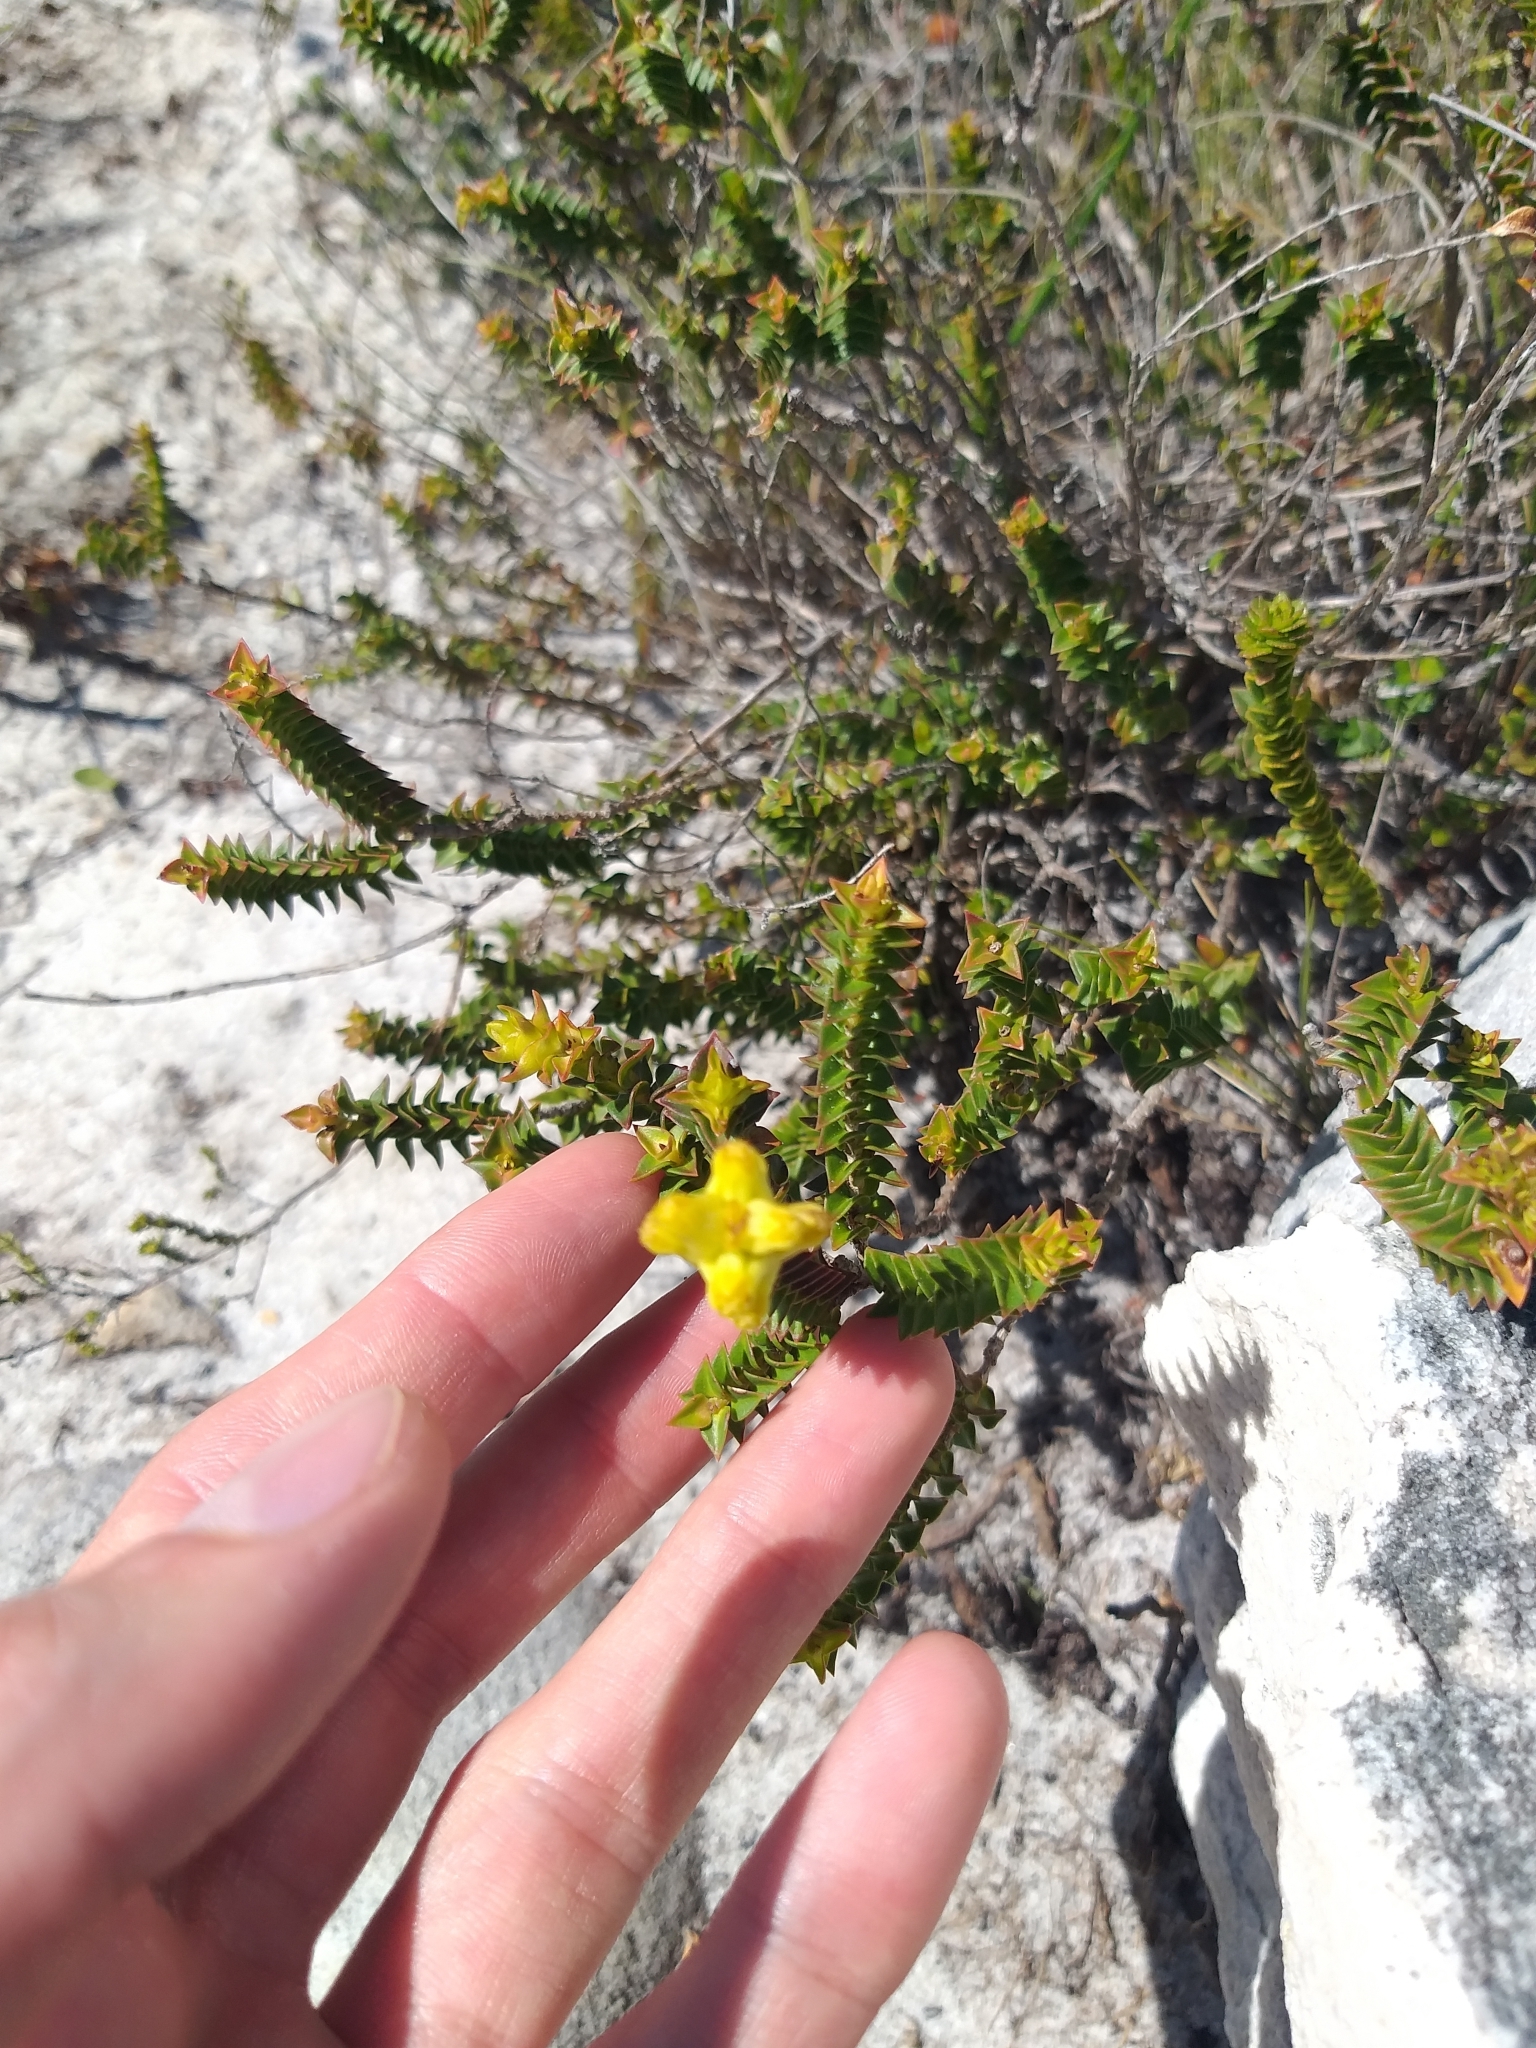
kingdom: Plantae
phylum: Tracheophyta
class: Magnoliopsida
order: Myrtales
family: Penaeaceae
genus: Penaea
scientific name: Penaea mucronata
